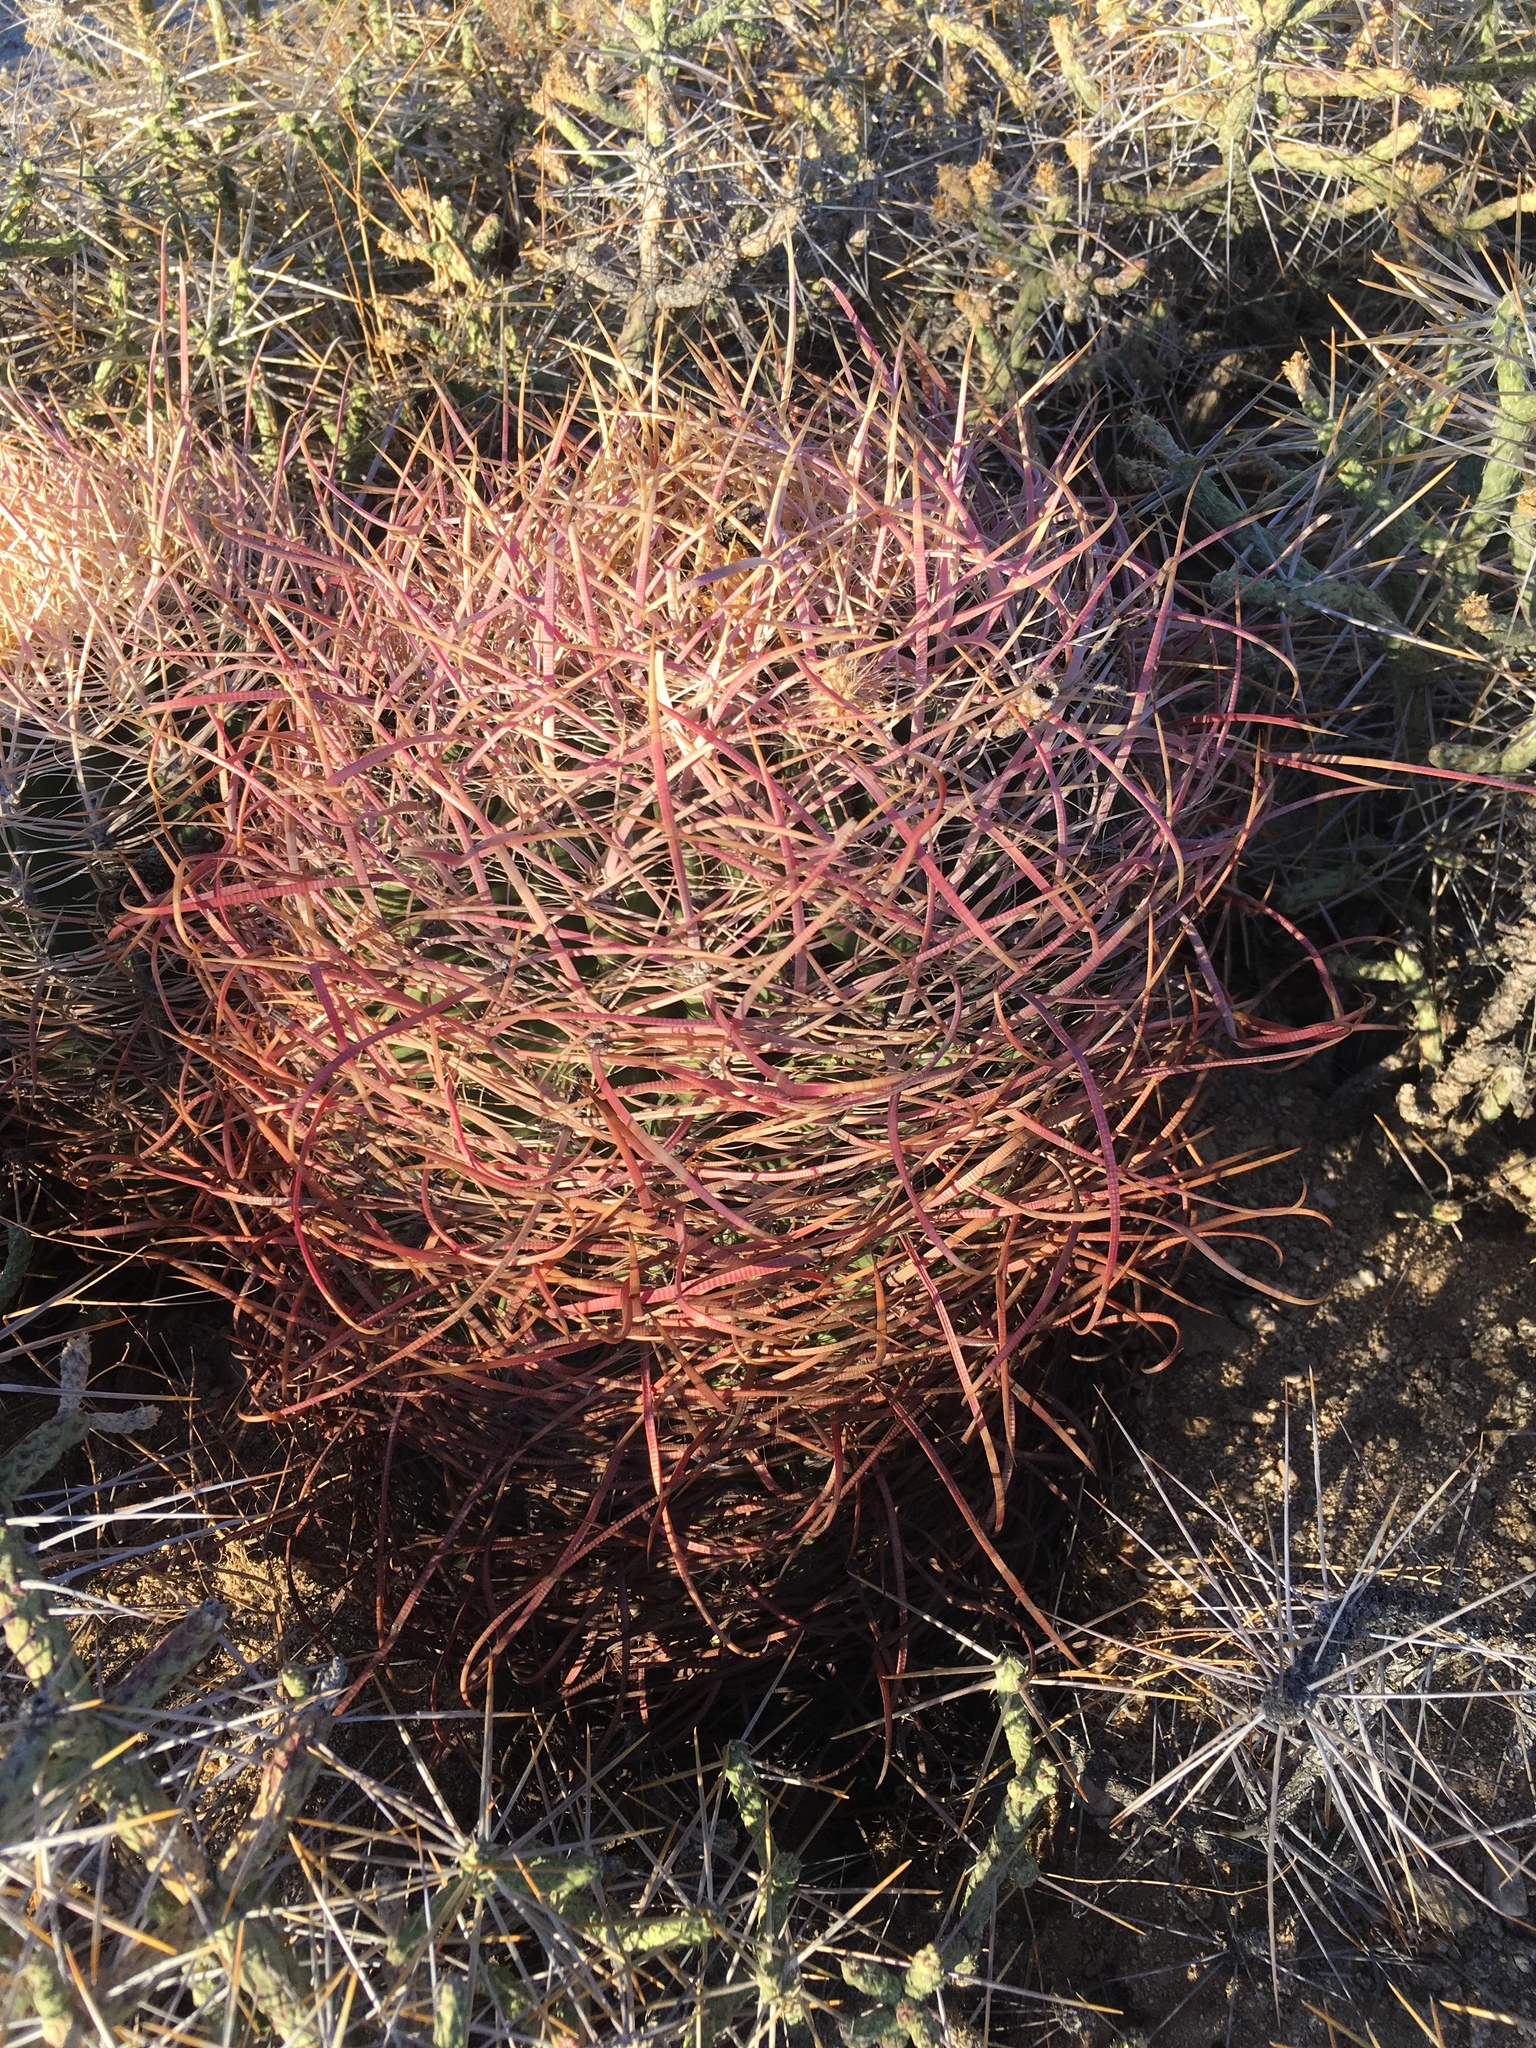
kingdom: Plantae
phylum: Tracheophyta
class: Magnoliopsida
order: Caryophyllales
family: Cactaceae
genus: Ferocactus
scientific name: Ferocactus cylindraceus
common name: California barrel cactus
